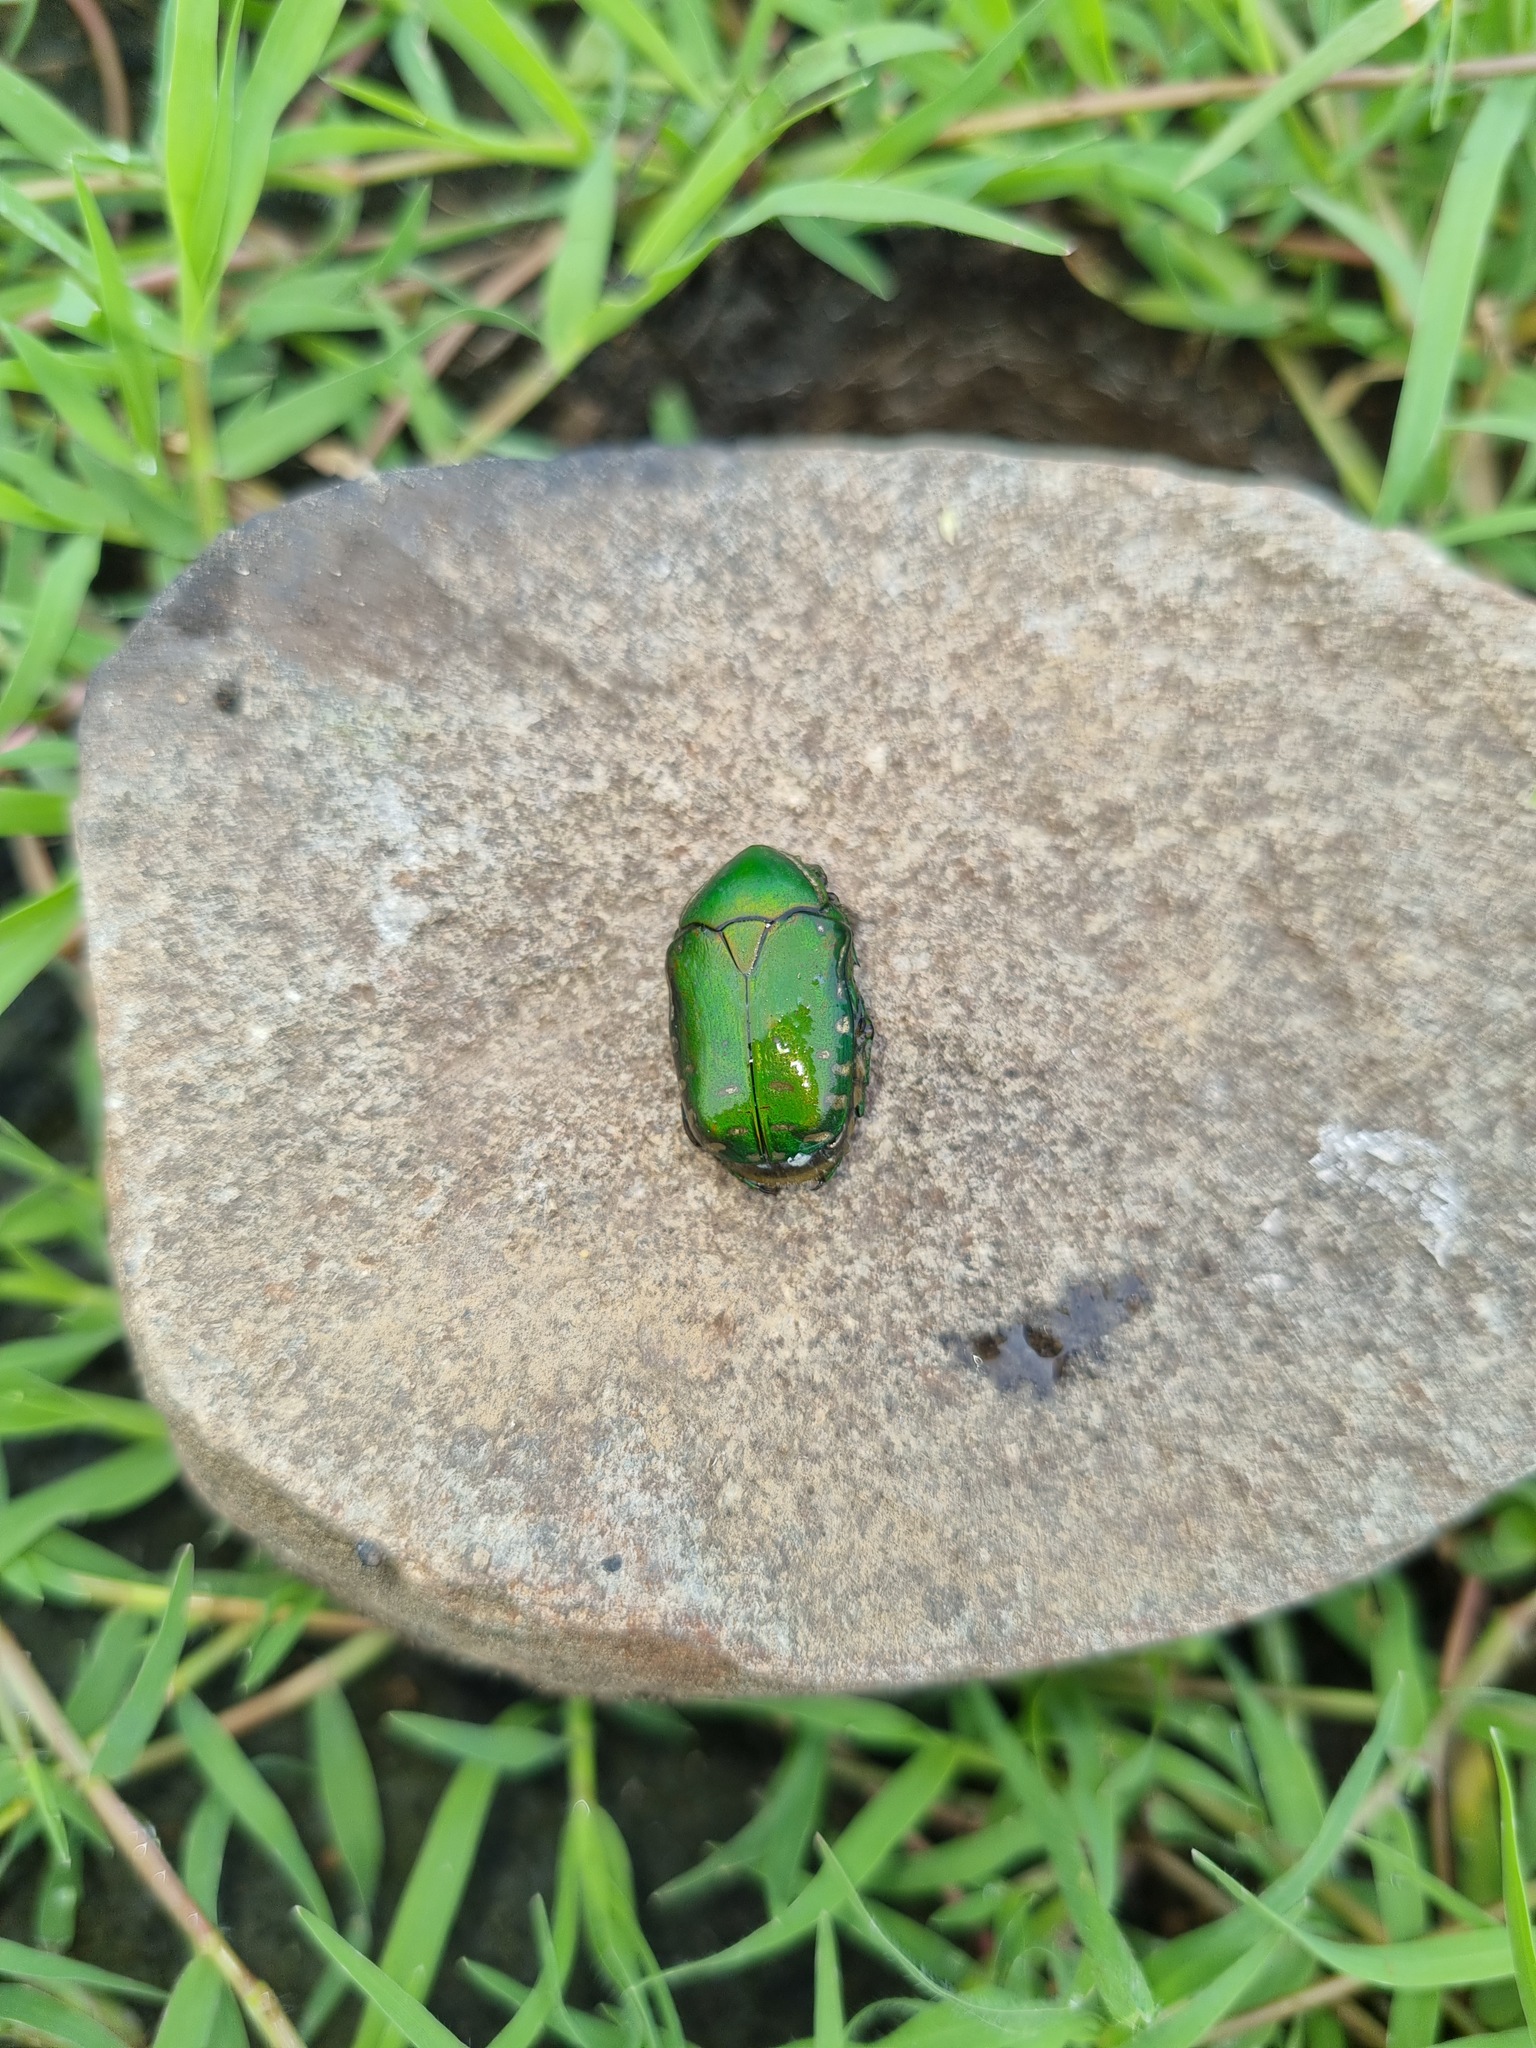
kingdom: Animalia
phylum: Arthropoda
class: Insecta
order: Coleoptera
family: Scarabaeidae
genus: Rhabdotis
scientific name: Rhabdotis aulica
